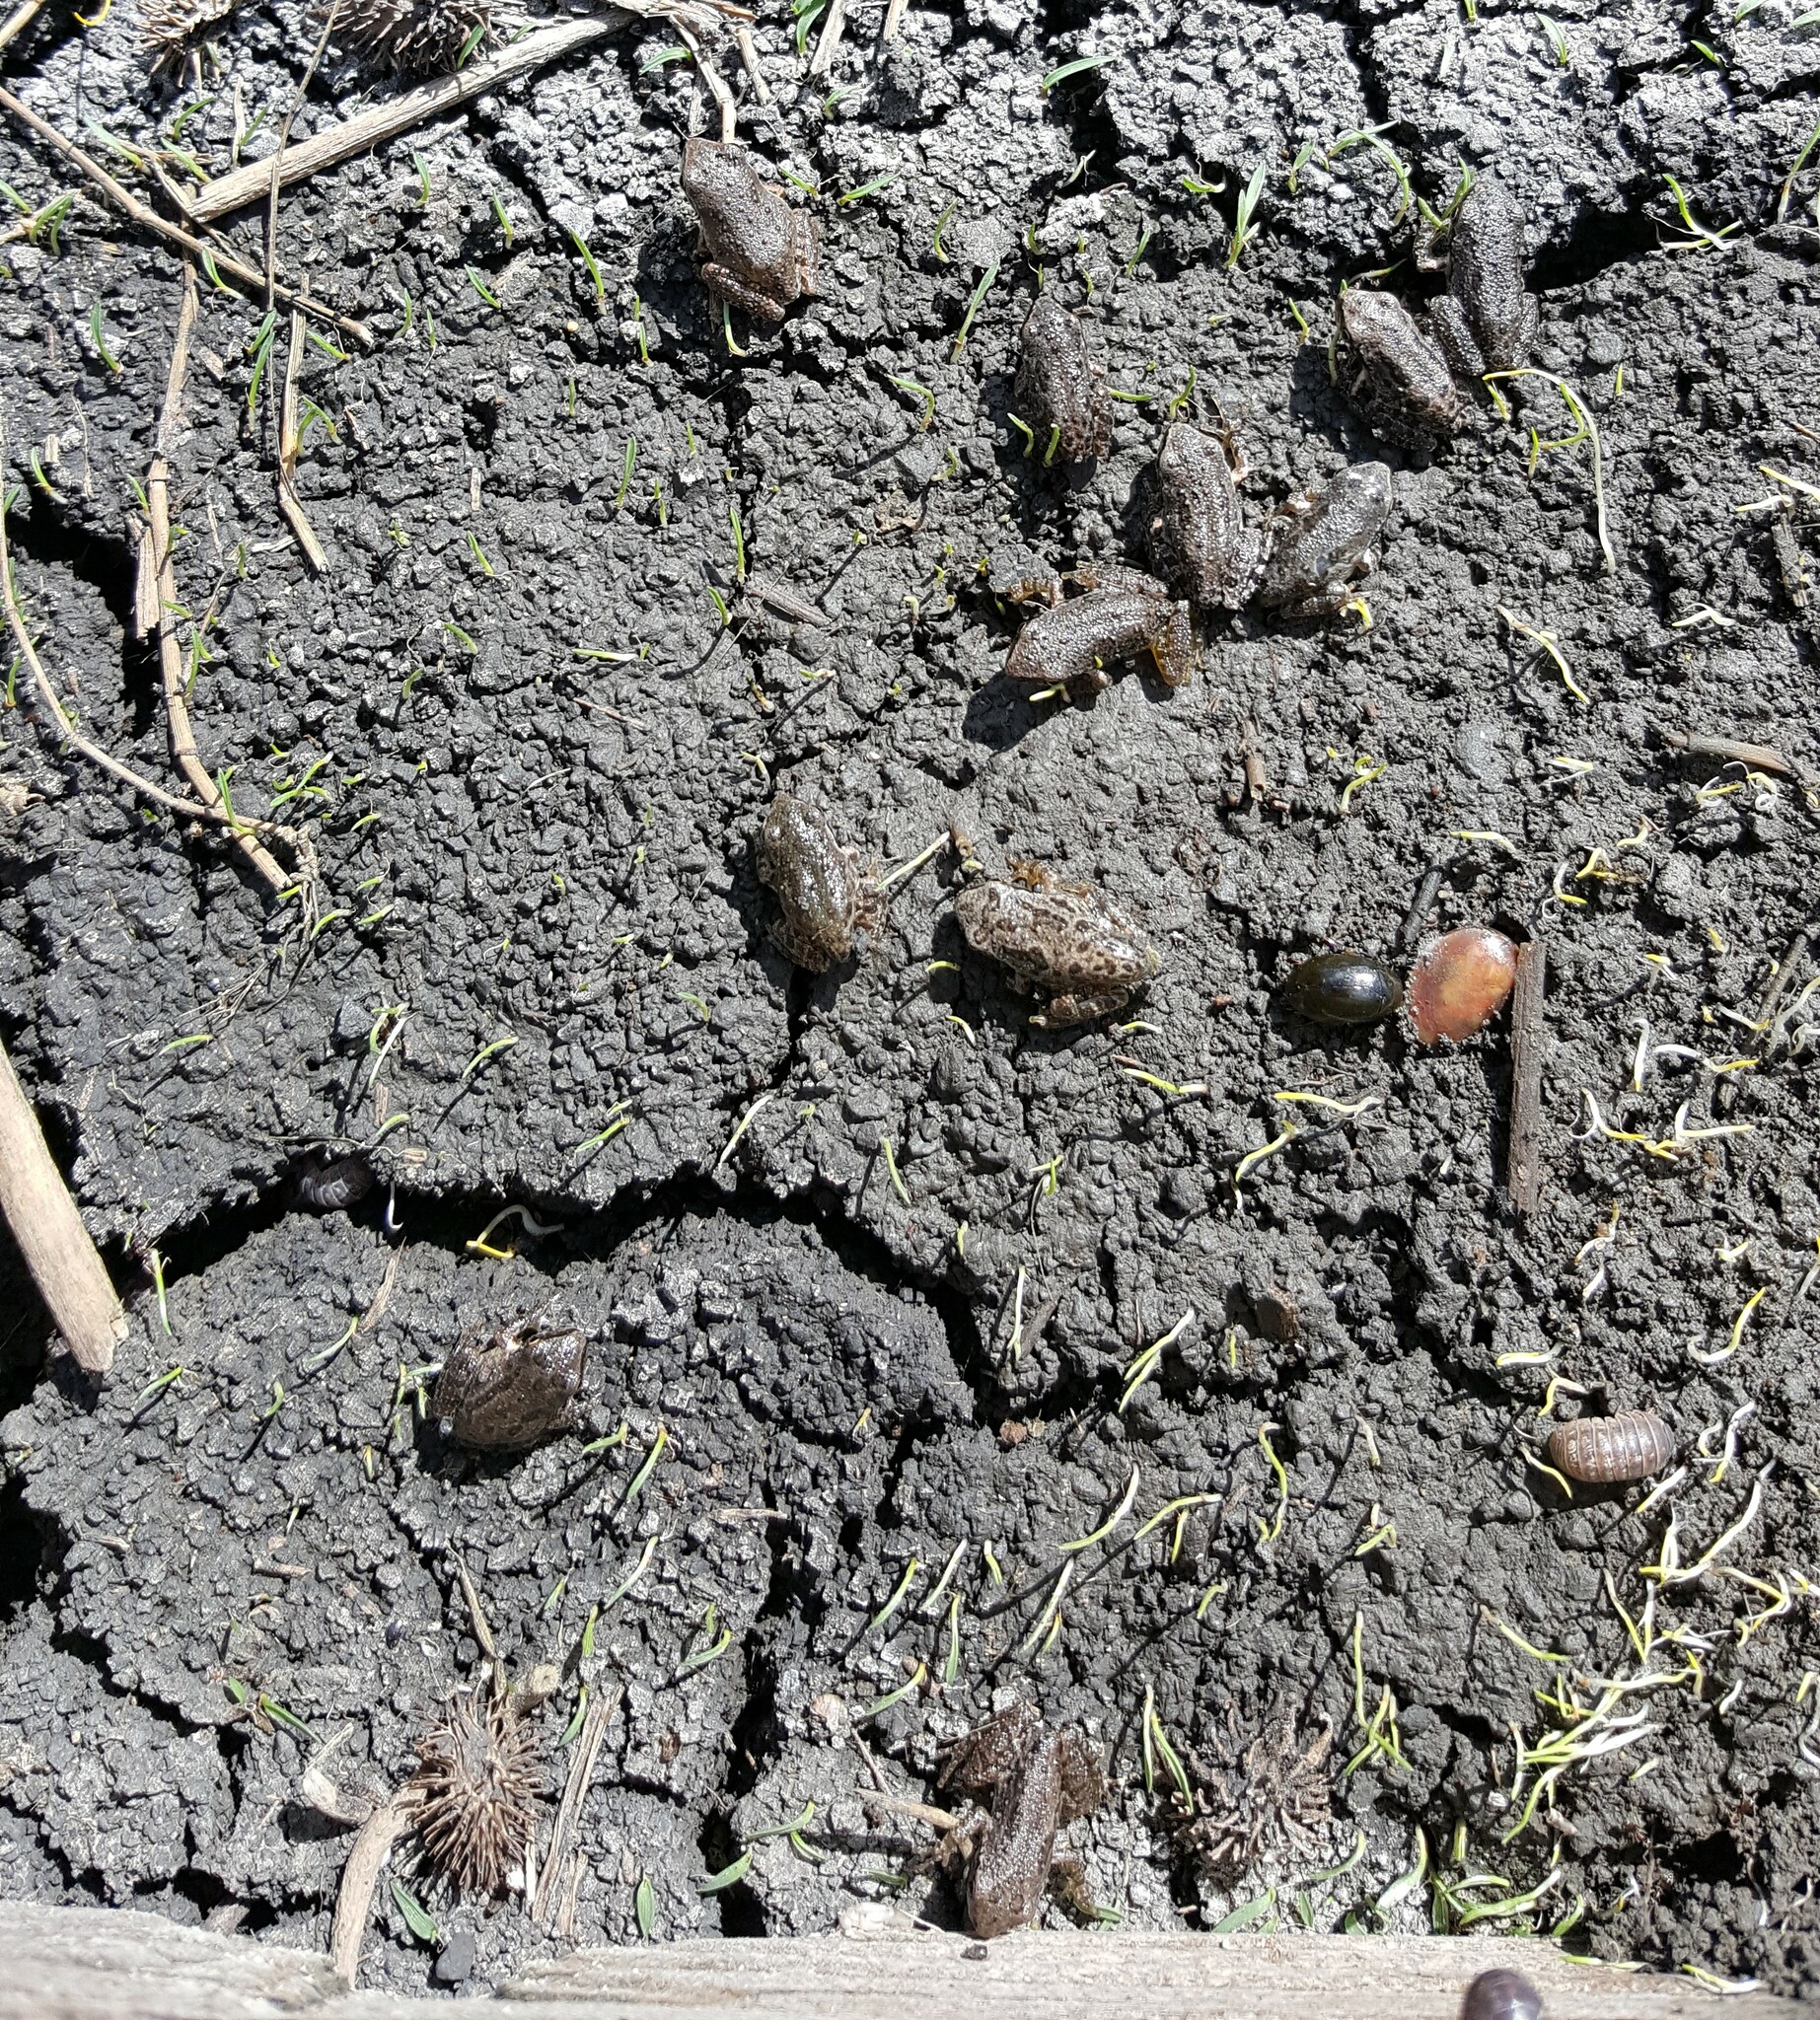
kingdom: Animalia
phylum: Chordata
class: Amphibia
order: Anura
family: Hylidae
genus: Pseudacris
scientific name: Pseudacris regilla
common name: Pacific chorus frog
